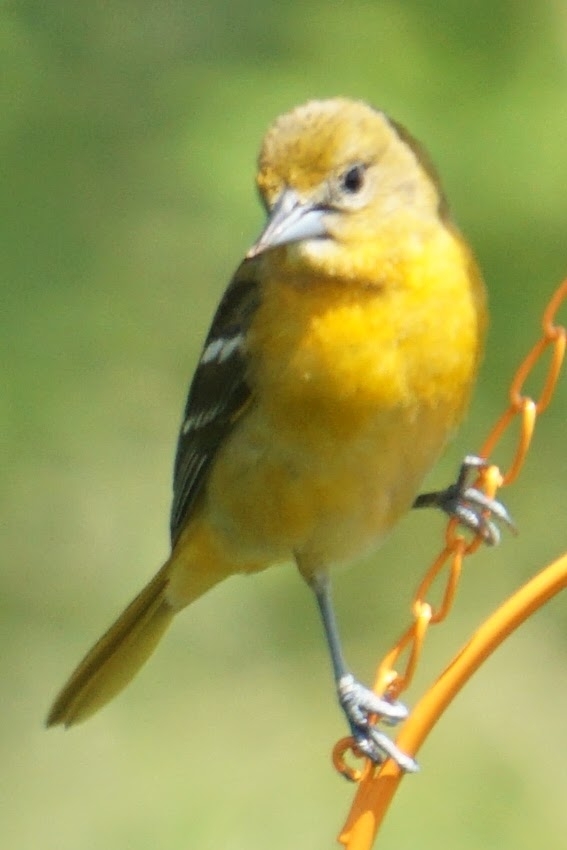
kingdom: Animalia
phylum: Chordata
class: Aves
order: Passeriformes
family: Icteridae
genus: Icterus
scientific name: Icterus galbula
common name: Baltimore oriole
